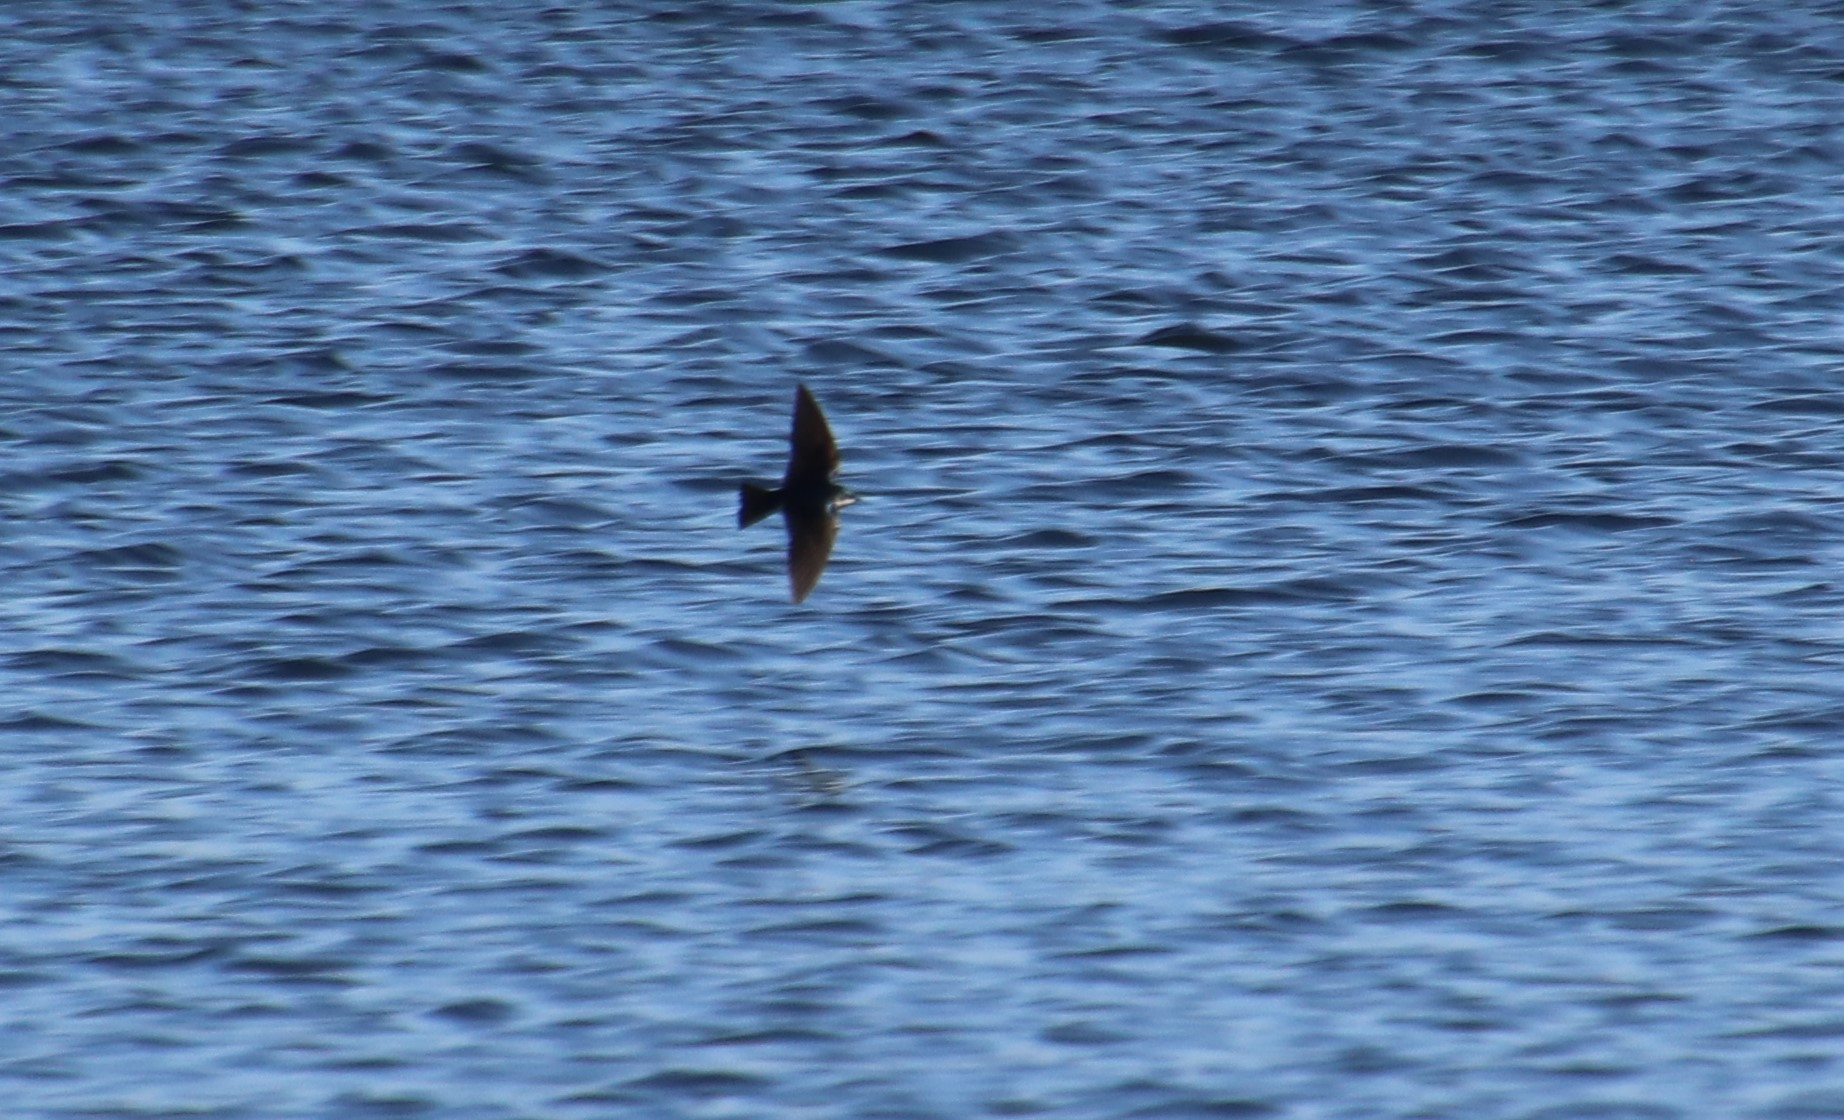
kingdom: Animalia
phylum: Chordata
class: Aves
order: Passeriformes
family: Hirundinidae
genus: Tachycineta
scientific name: Tachycineta bicolor
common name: Tree swallow
